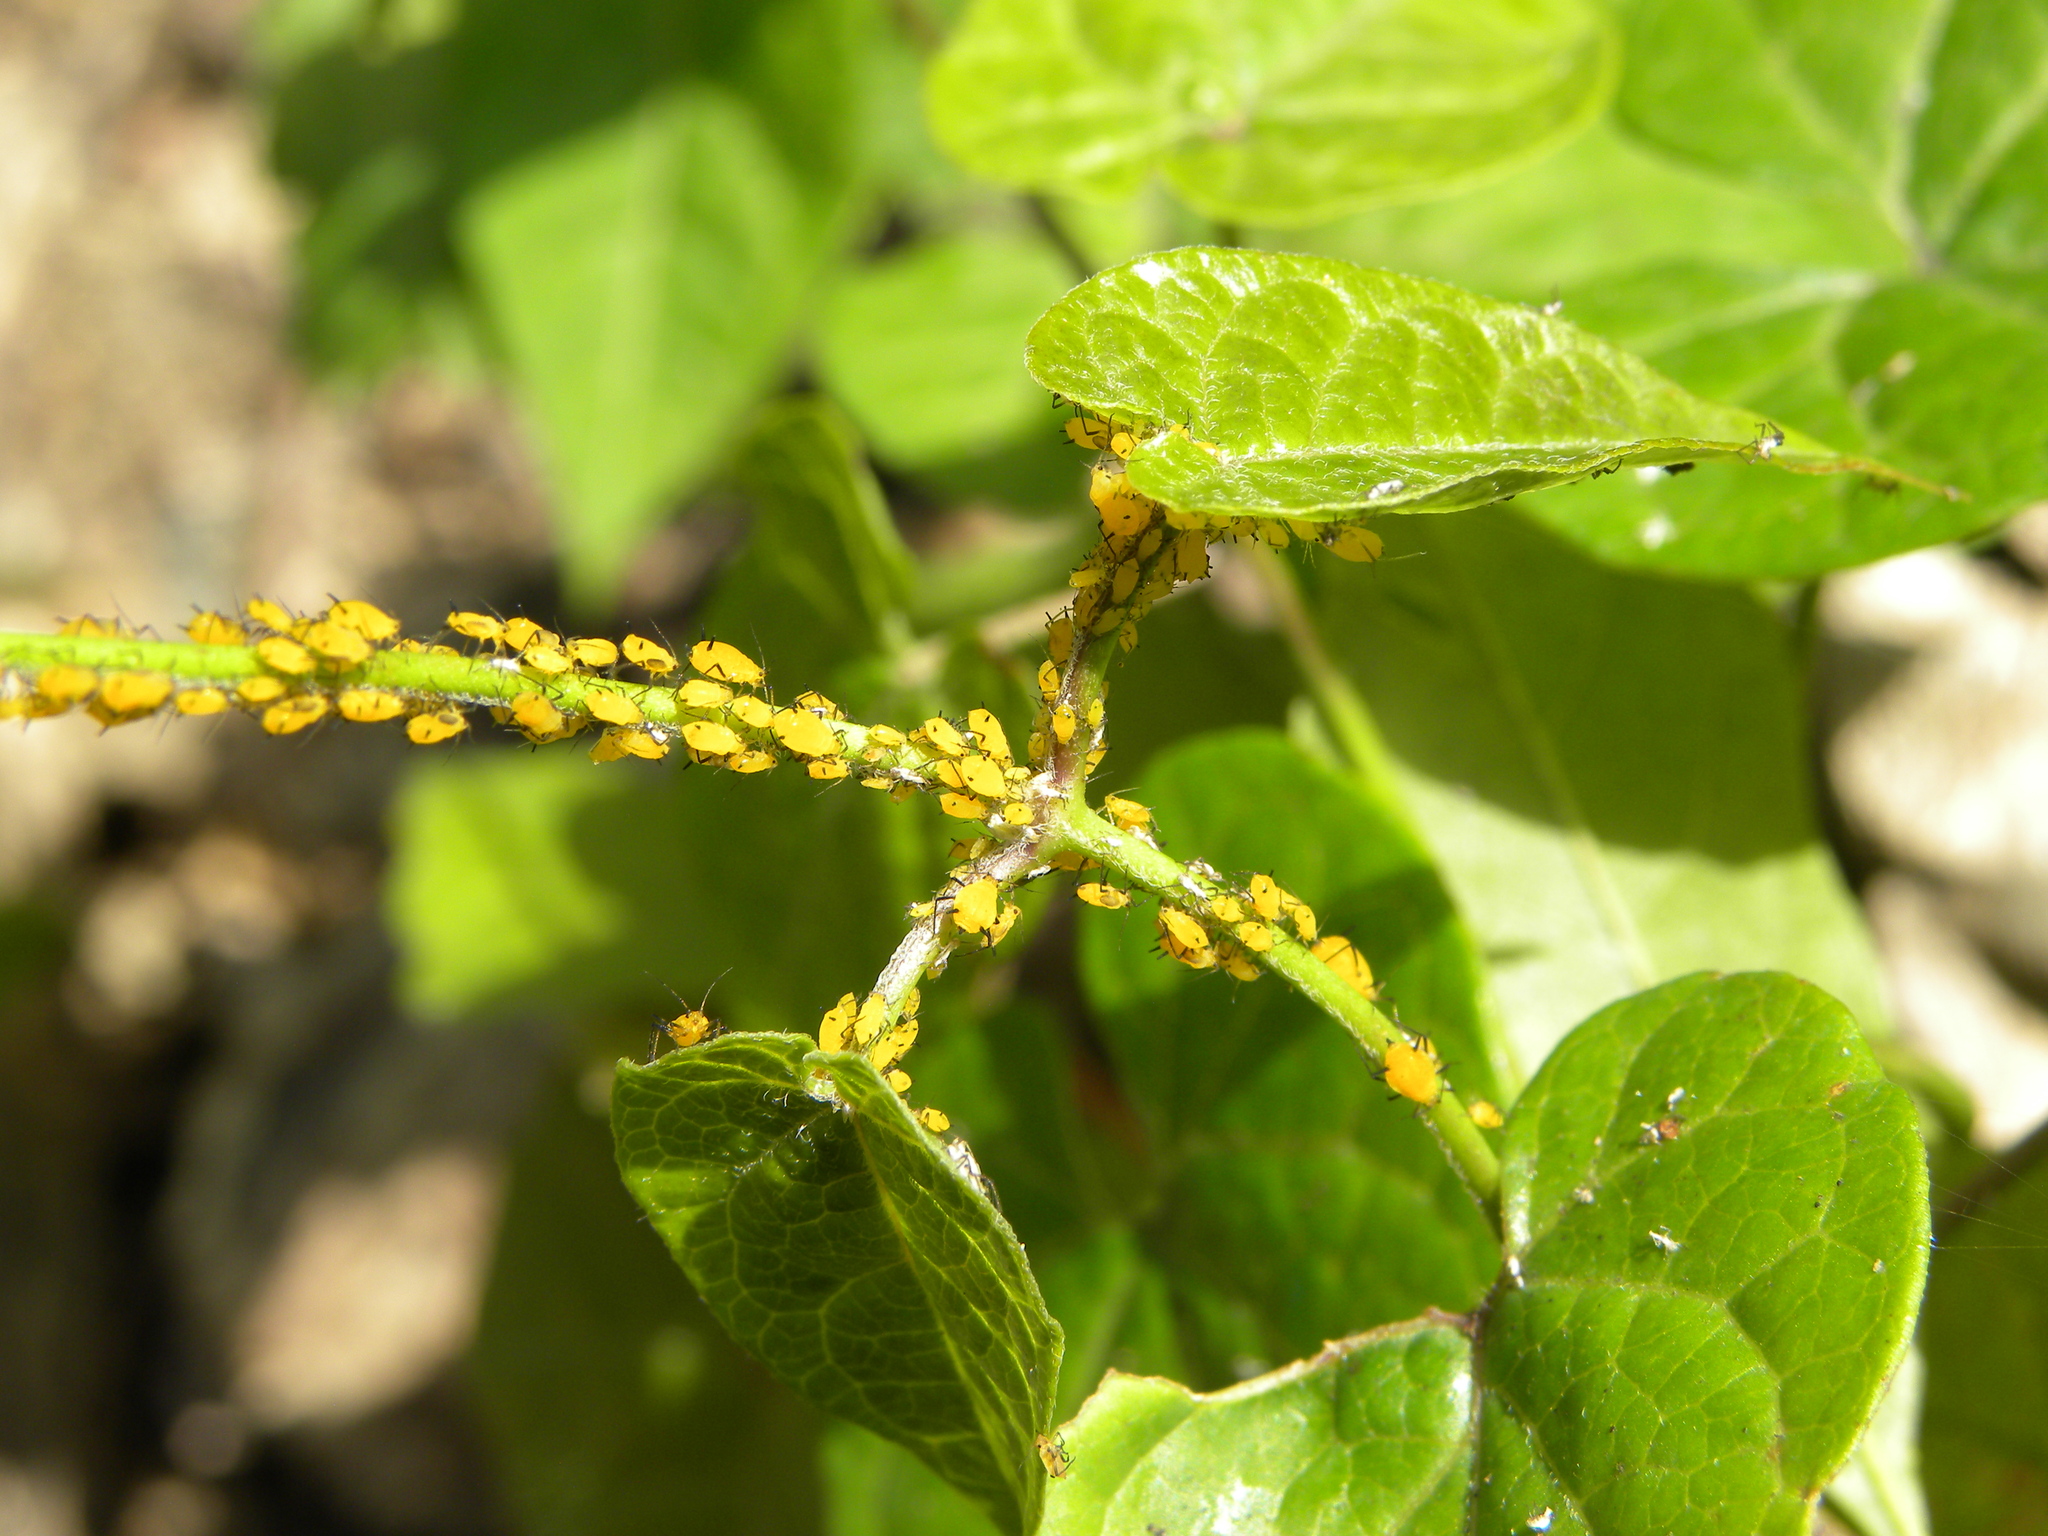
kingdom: Animalia
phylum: Arthropoda
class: Insecta
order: Hemiptera
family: Aphididae
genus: Aphis
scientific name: Aphis nerii
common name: Oleander aphid
